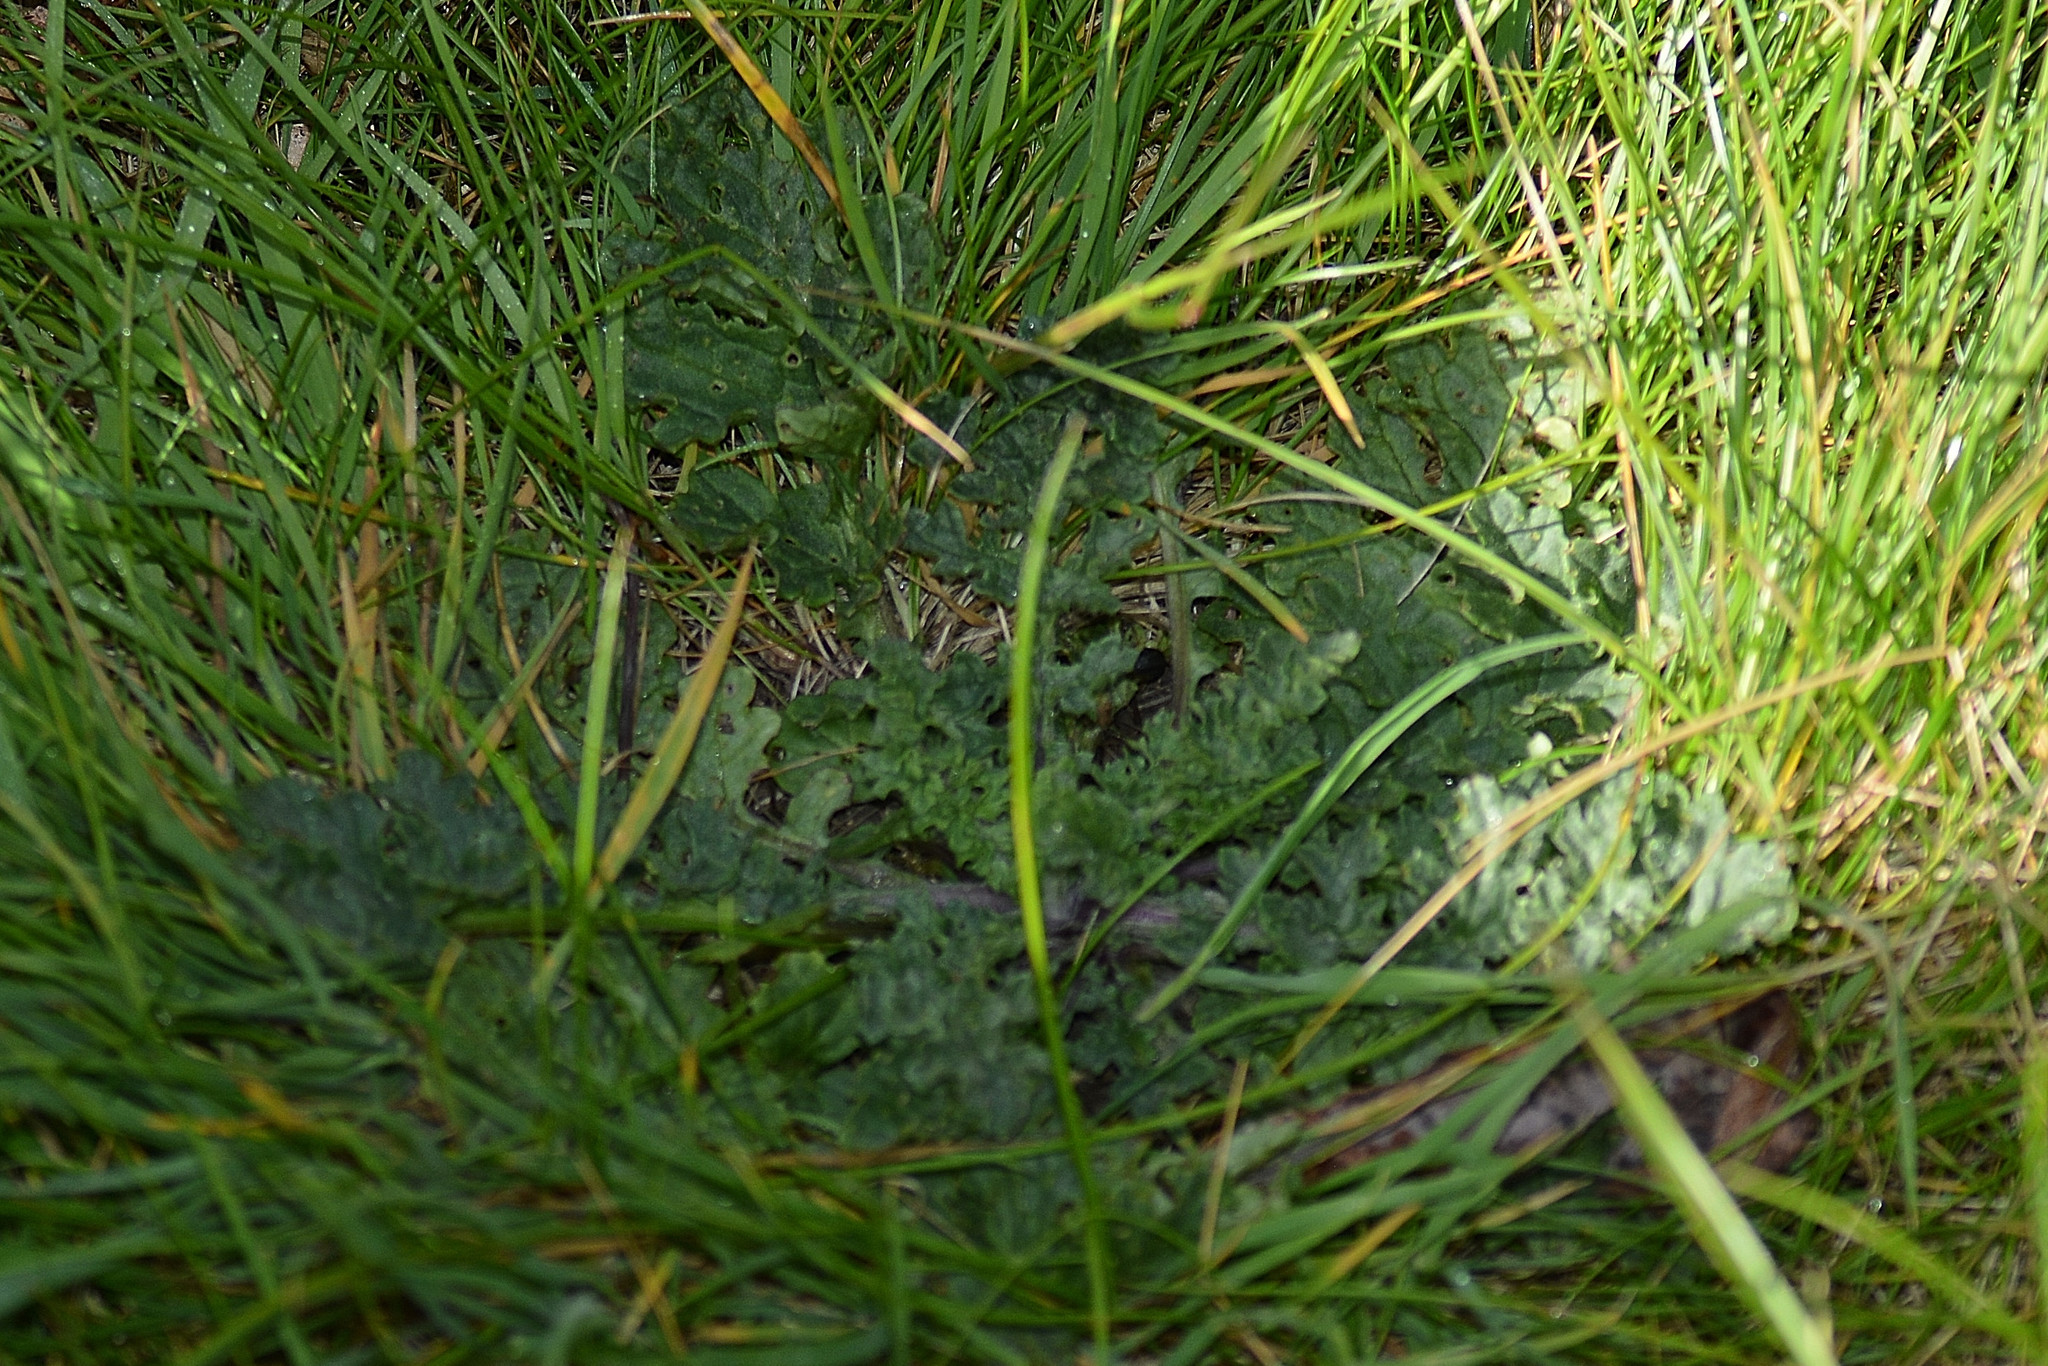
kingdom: Plantae
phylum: Tracheophyta
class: Magnoliopsida
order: Asterales
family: Asteraceae
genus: Jacobaea
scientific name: Jacobaea vulgaris
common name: Stinking willie
